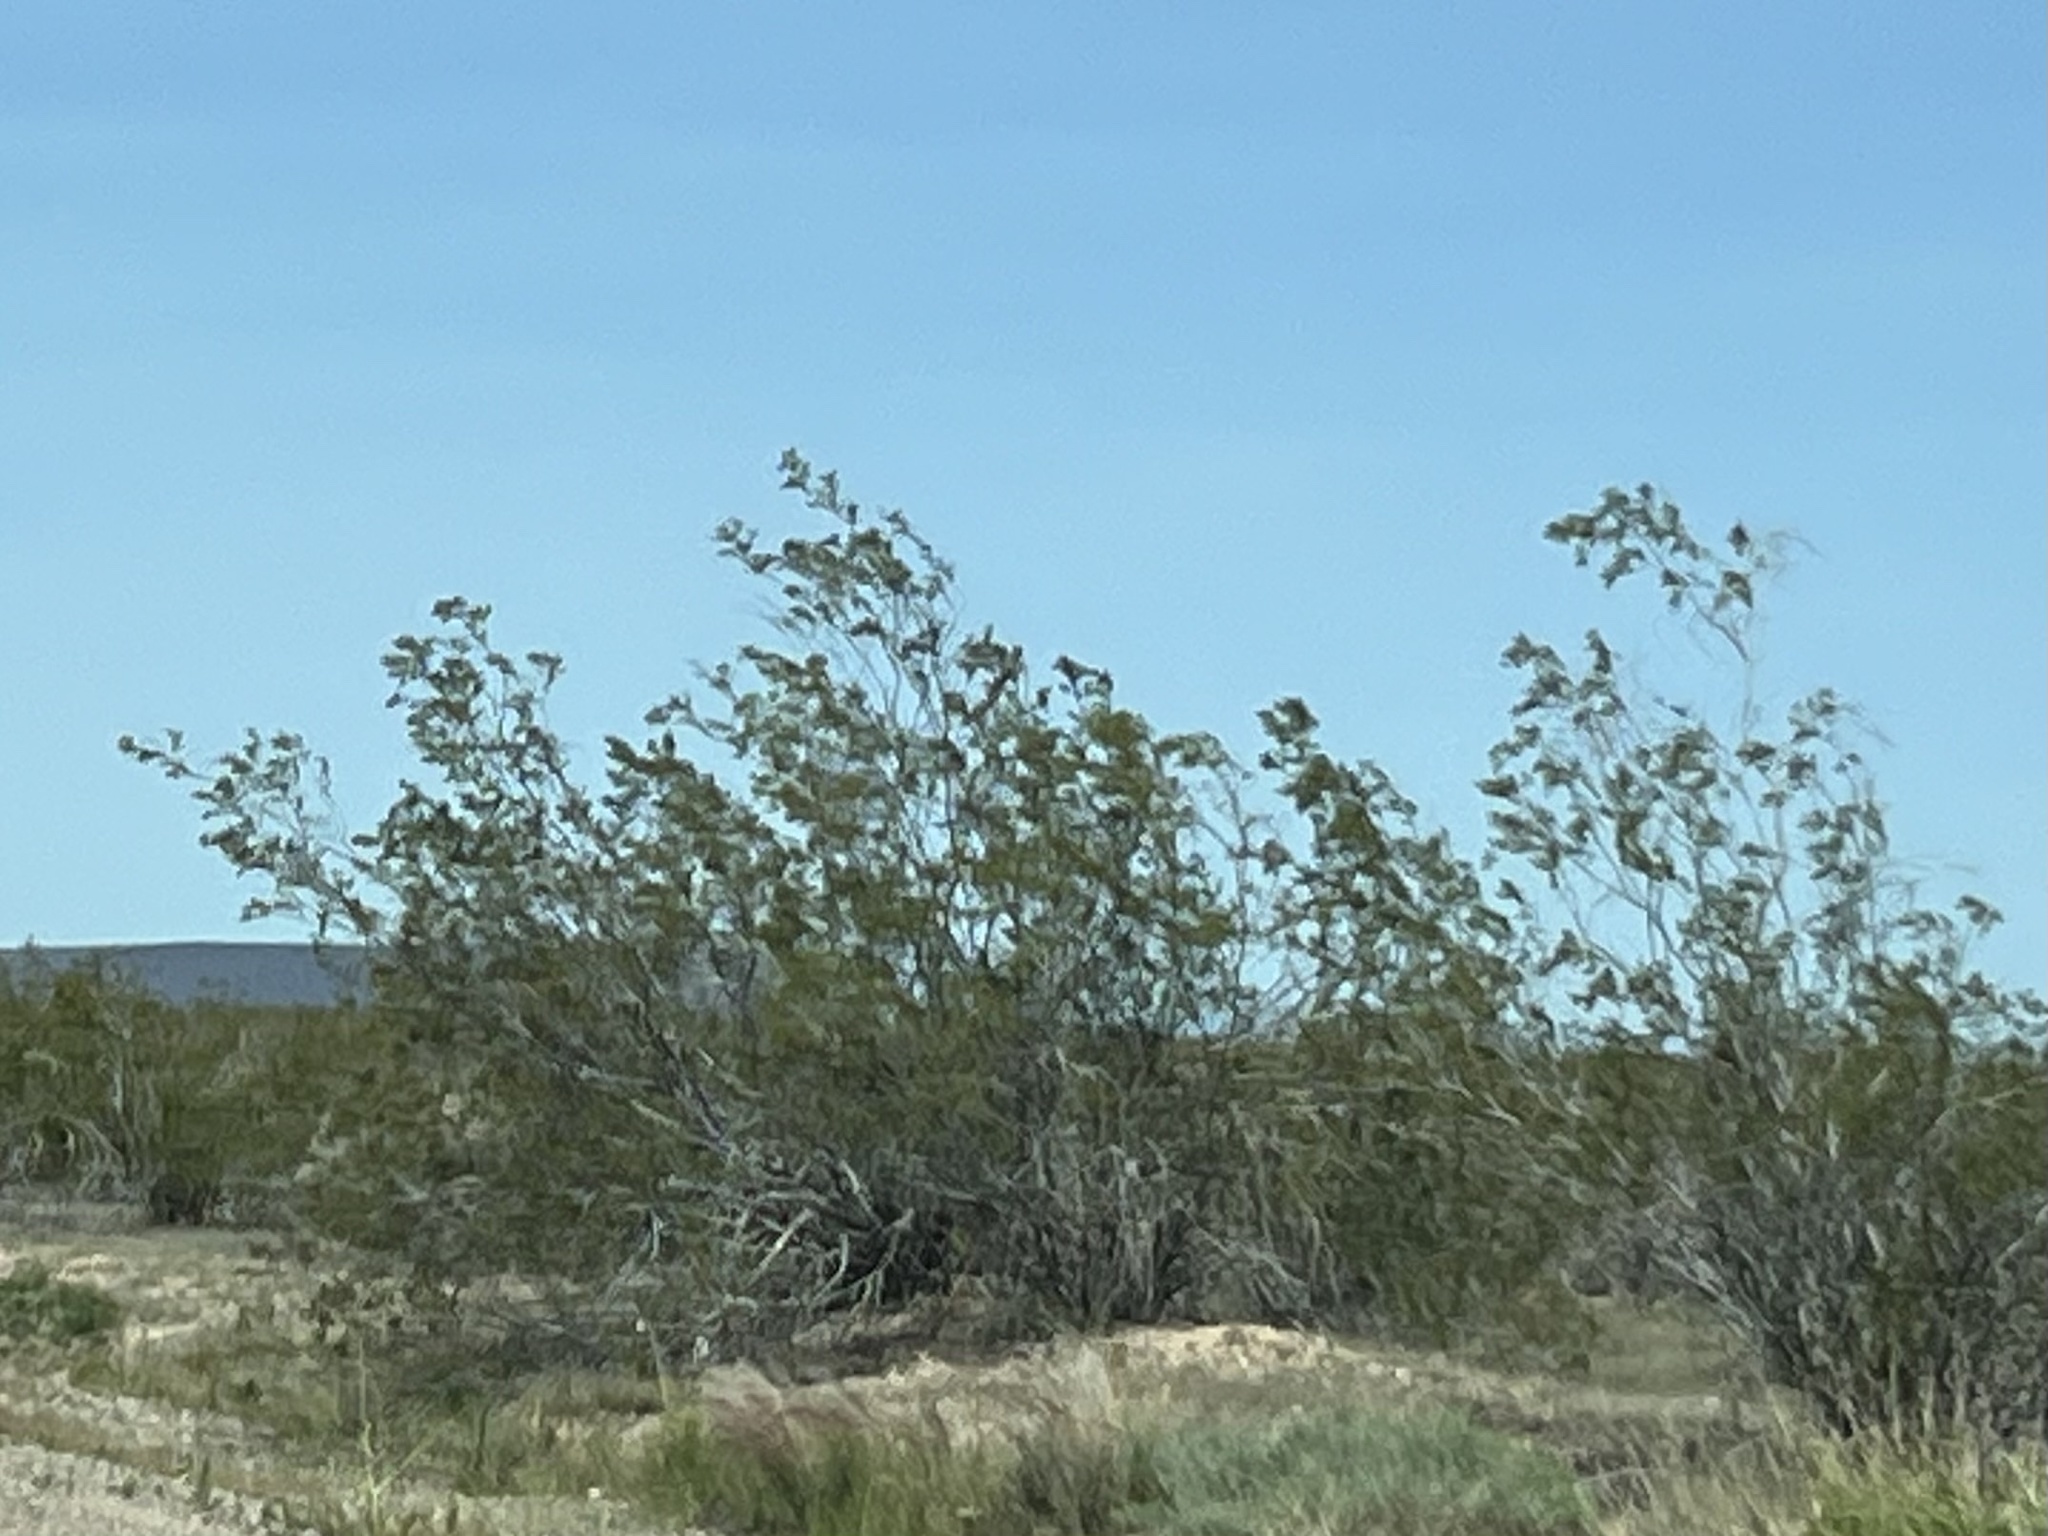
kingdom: Plantae
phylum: Tracheophyta
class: Magnoliopsida
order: Zygophyllales
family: Zygophyllaceae
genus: Larrea
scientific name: Larrea tridentata
